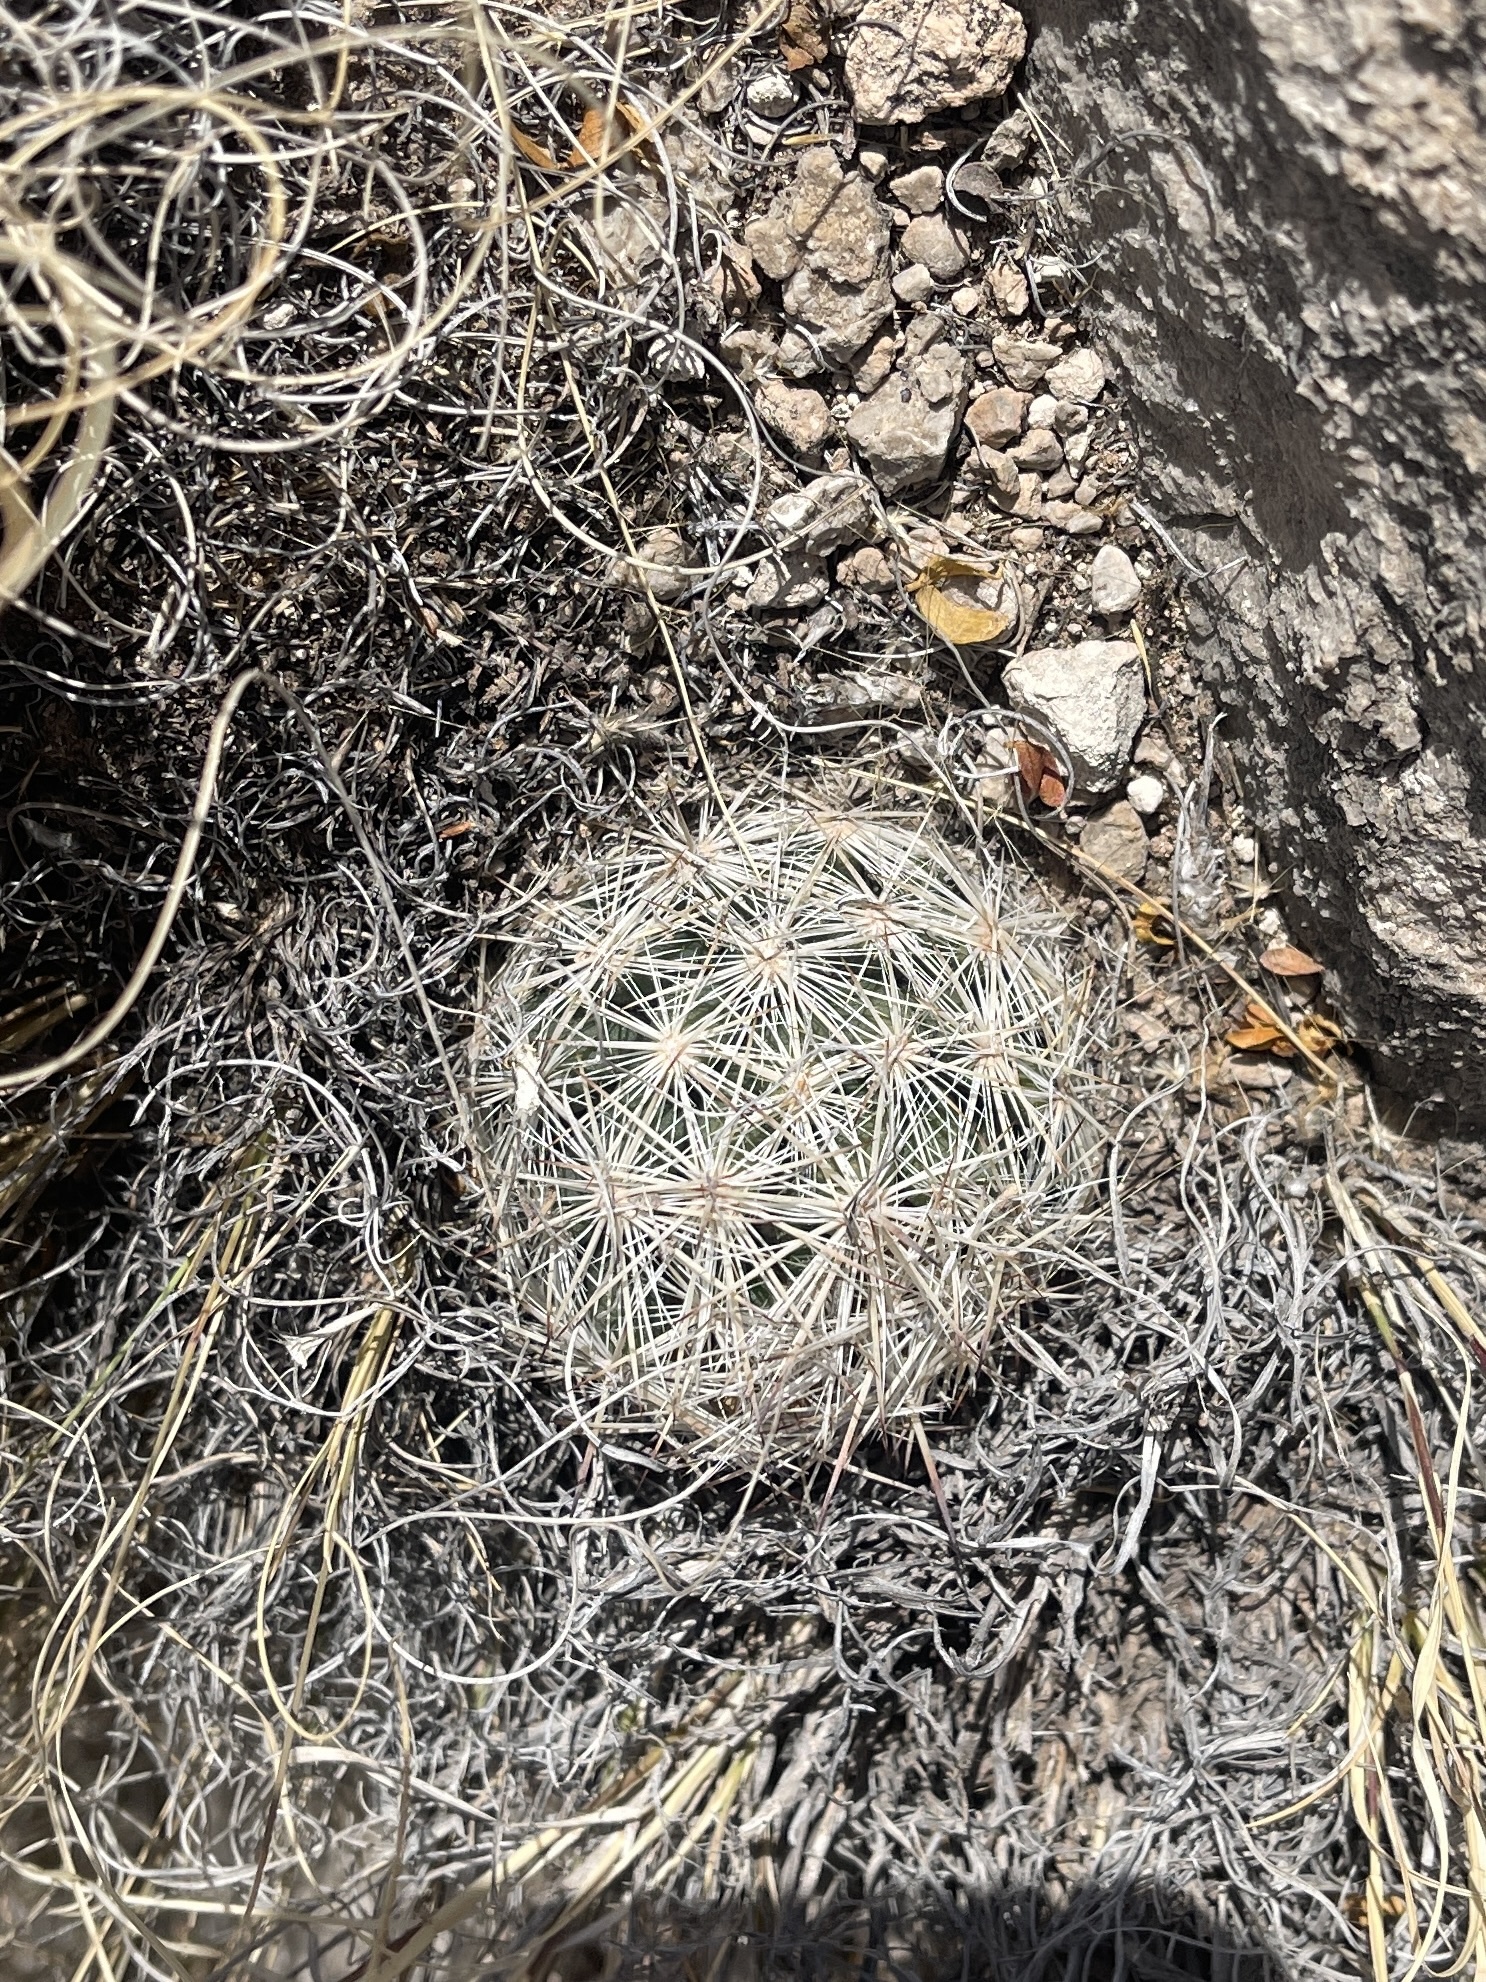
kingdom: Plantae
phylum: Tracheophyta
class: Magnoliopsida
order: Caryophyllales
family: Cactaceae
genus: Pelecyphora
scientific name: Pelecyphora vivipara
